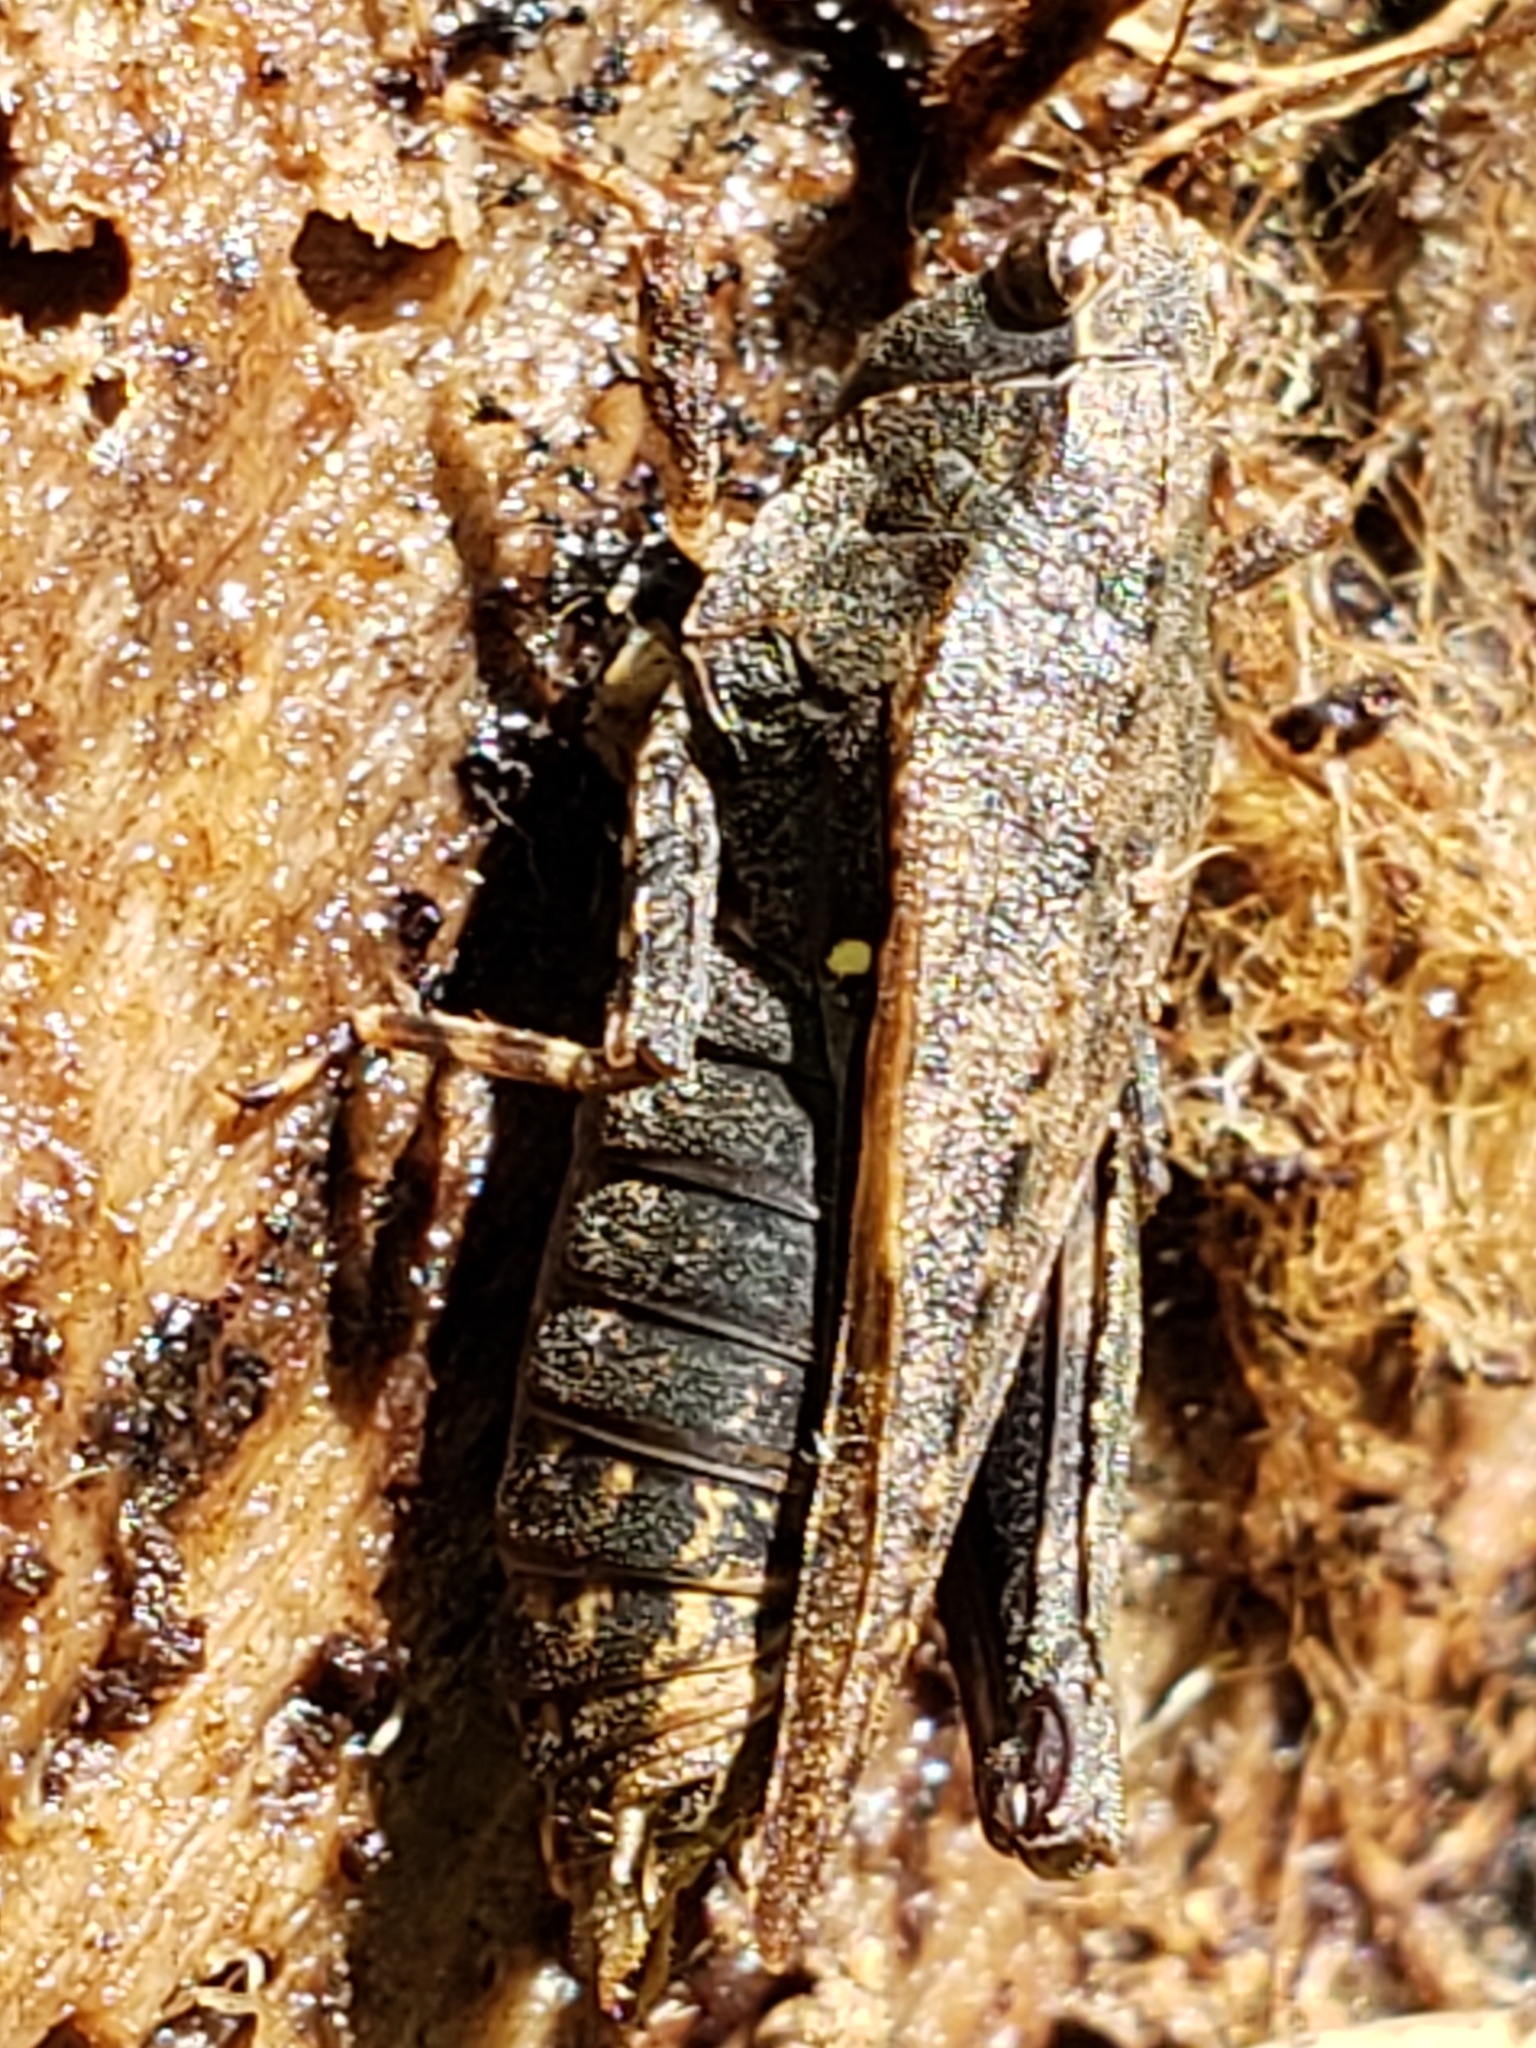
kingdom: Animalia
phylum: Arthropoda
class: Insecta
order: Orthoptera
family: Tetrigidae
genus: Tettigidea
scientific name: Tettigidea laterale
